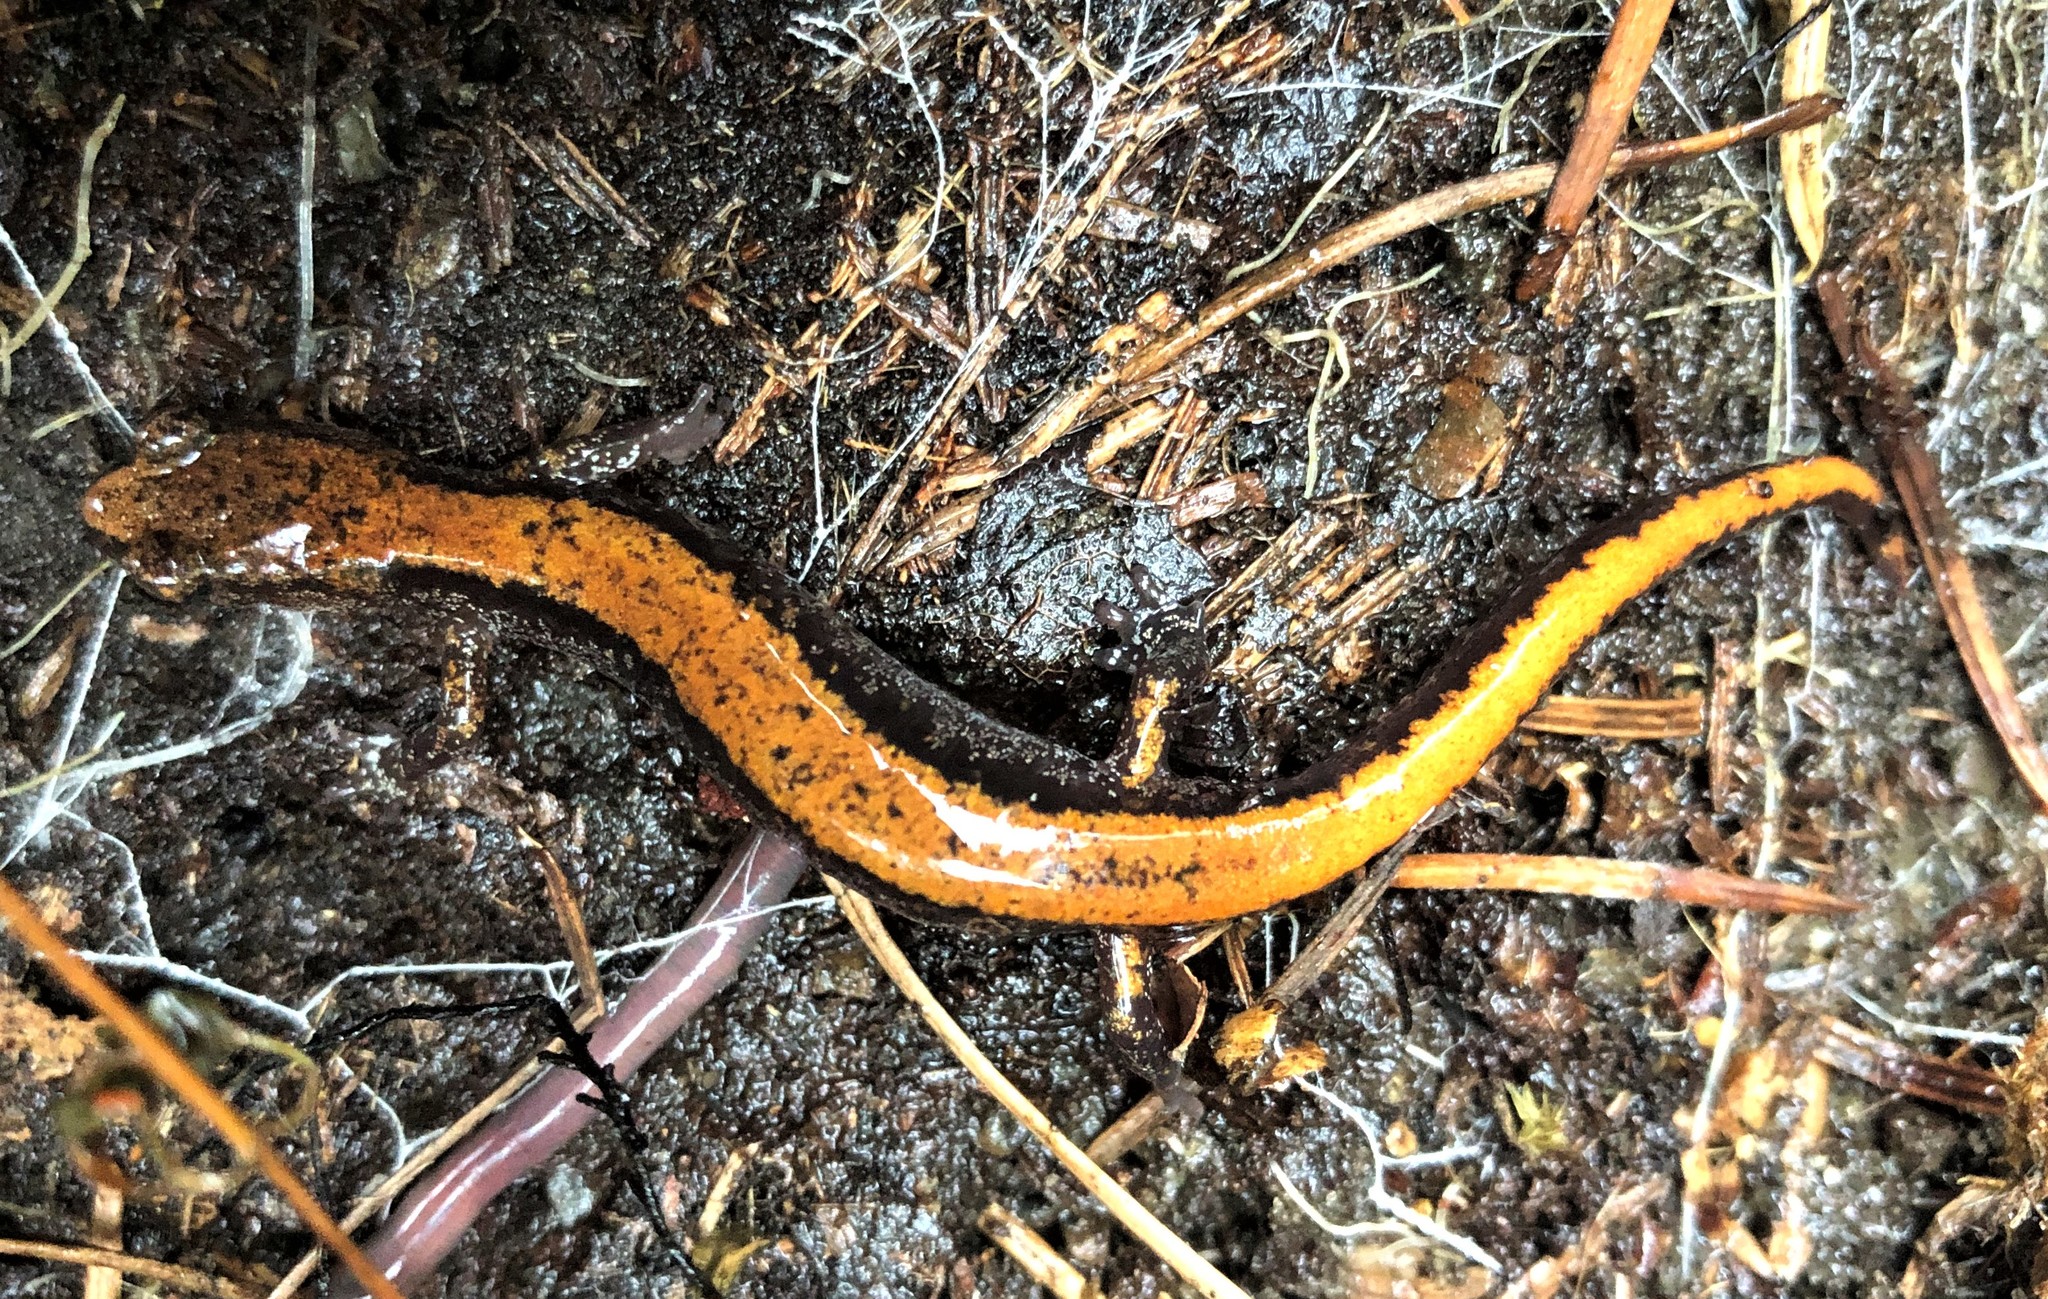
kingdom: Animalia
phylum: Chordata
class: Amphibia
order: Caudata
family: Plethodontidae
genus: Plethodon
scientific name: Plethodon larselli
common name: Larch mountain salamander
